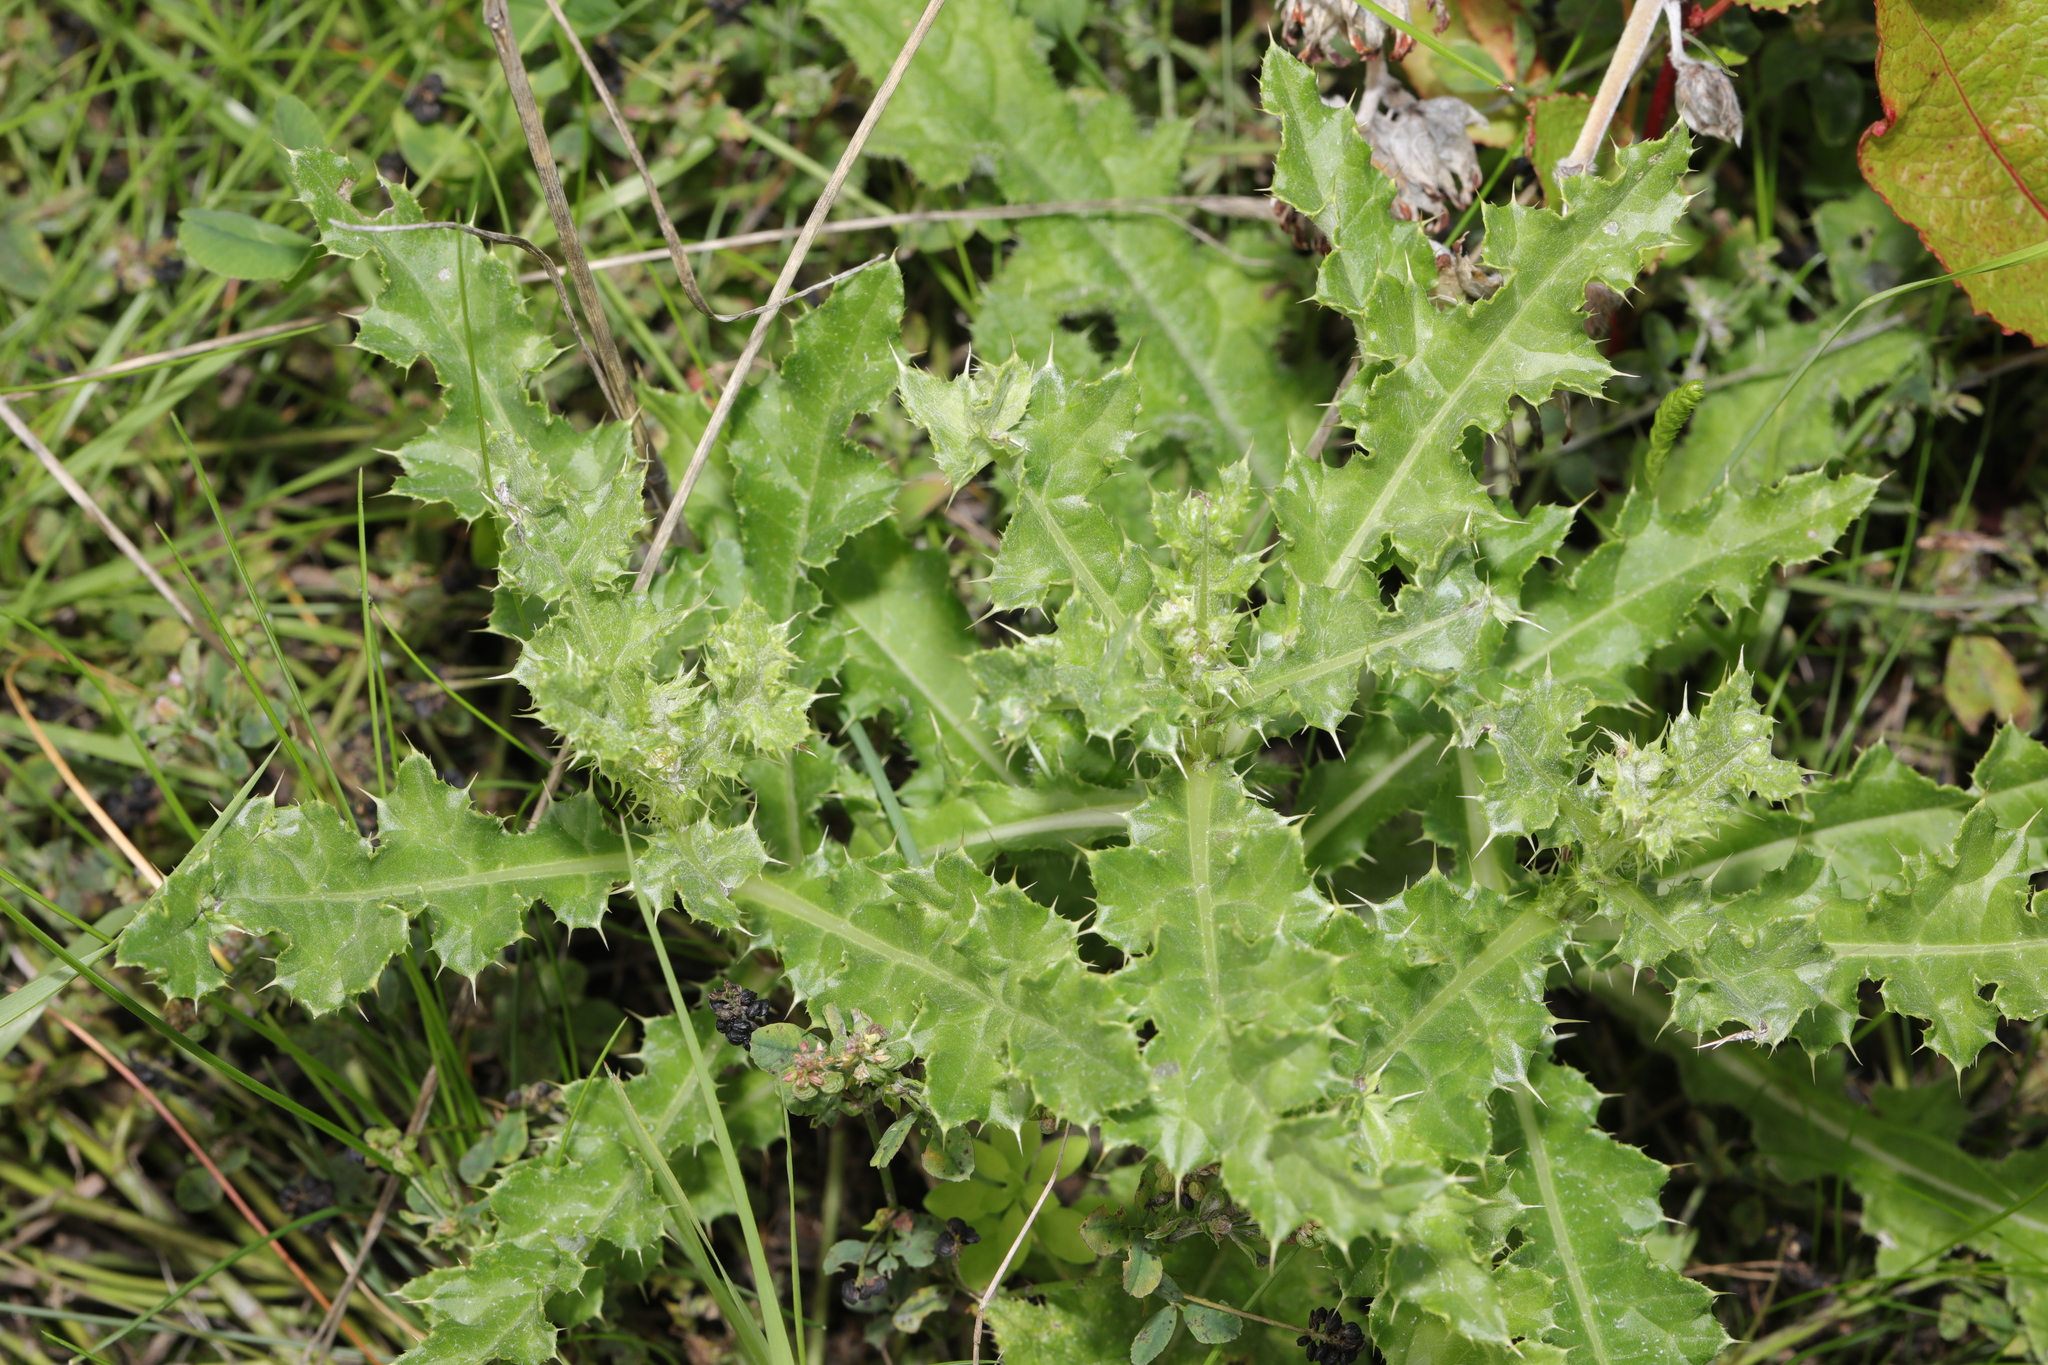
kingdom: Plantae
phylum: Tracheophyta
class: Magnoliopsida
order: Asterales
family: Asteraceae
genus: Cirsium
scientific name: Cirsium arvense
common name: Creeping thistle
